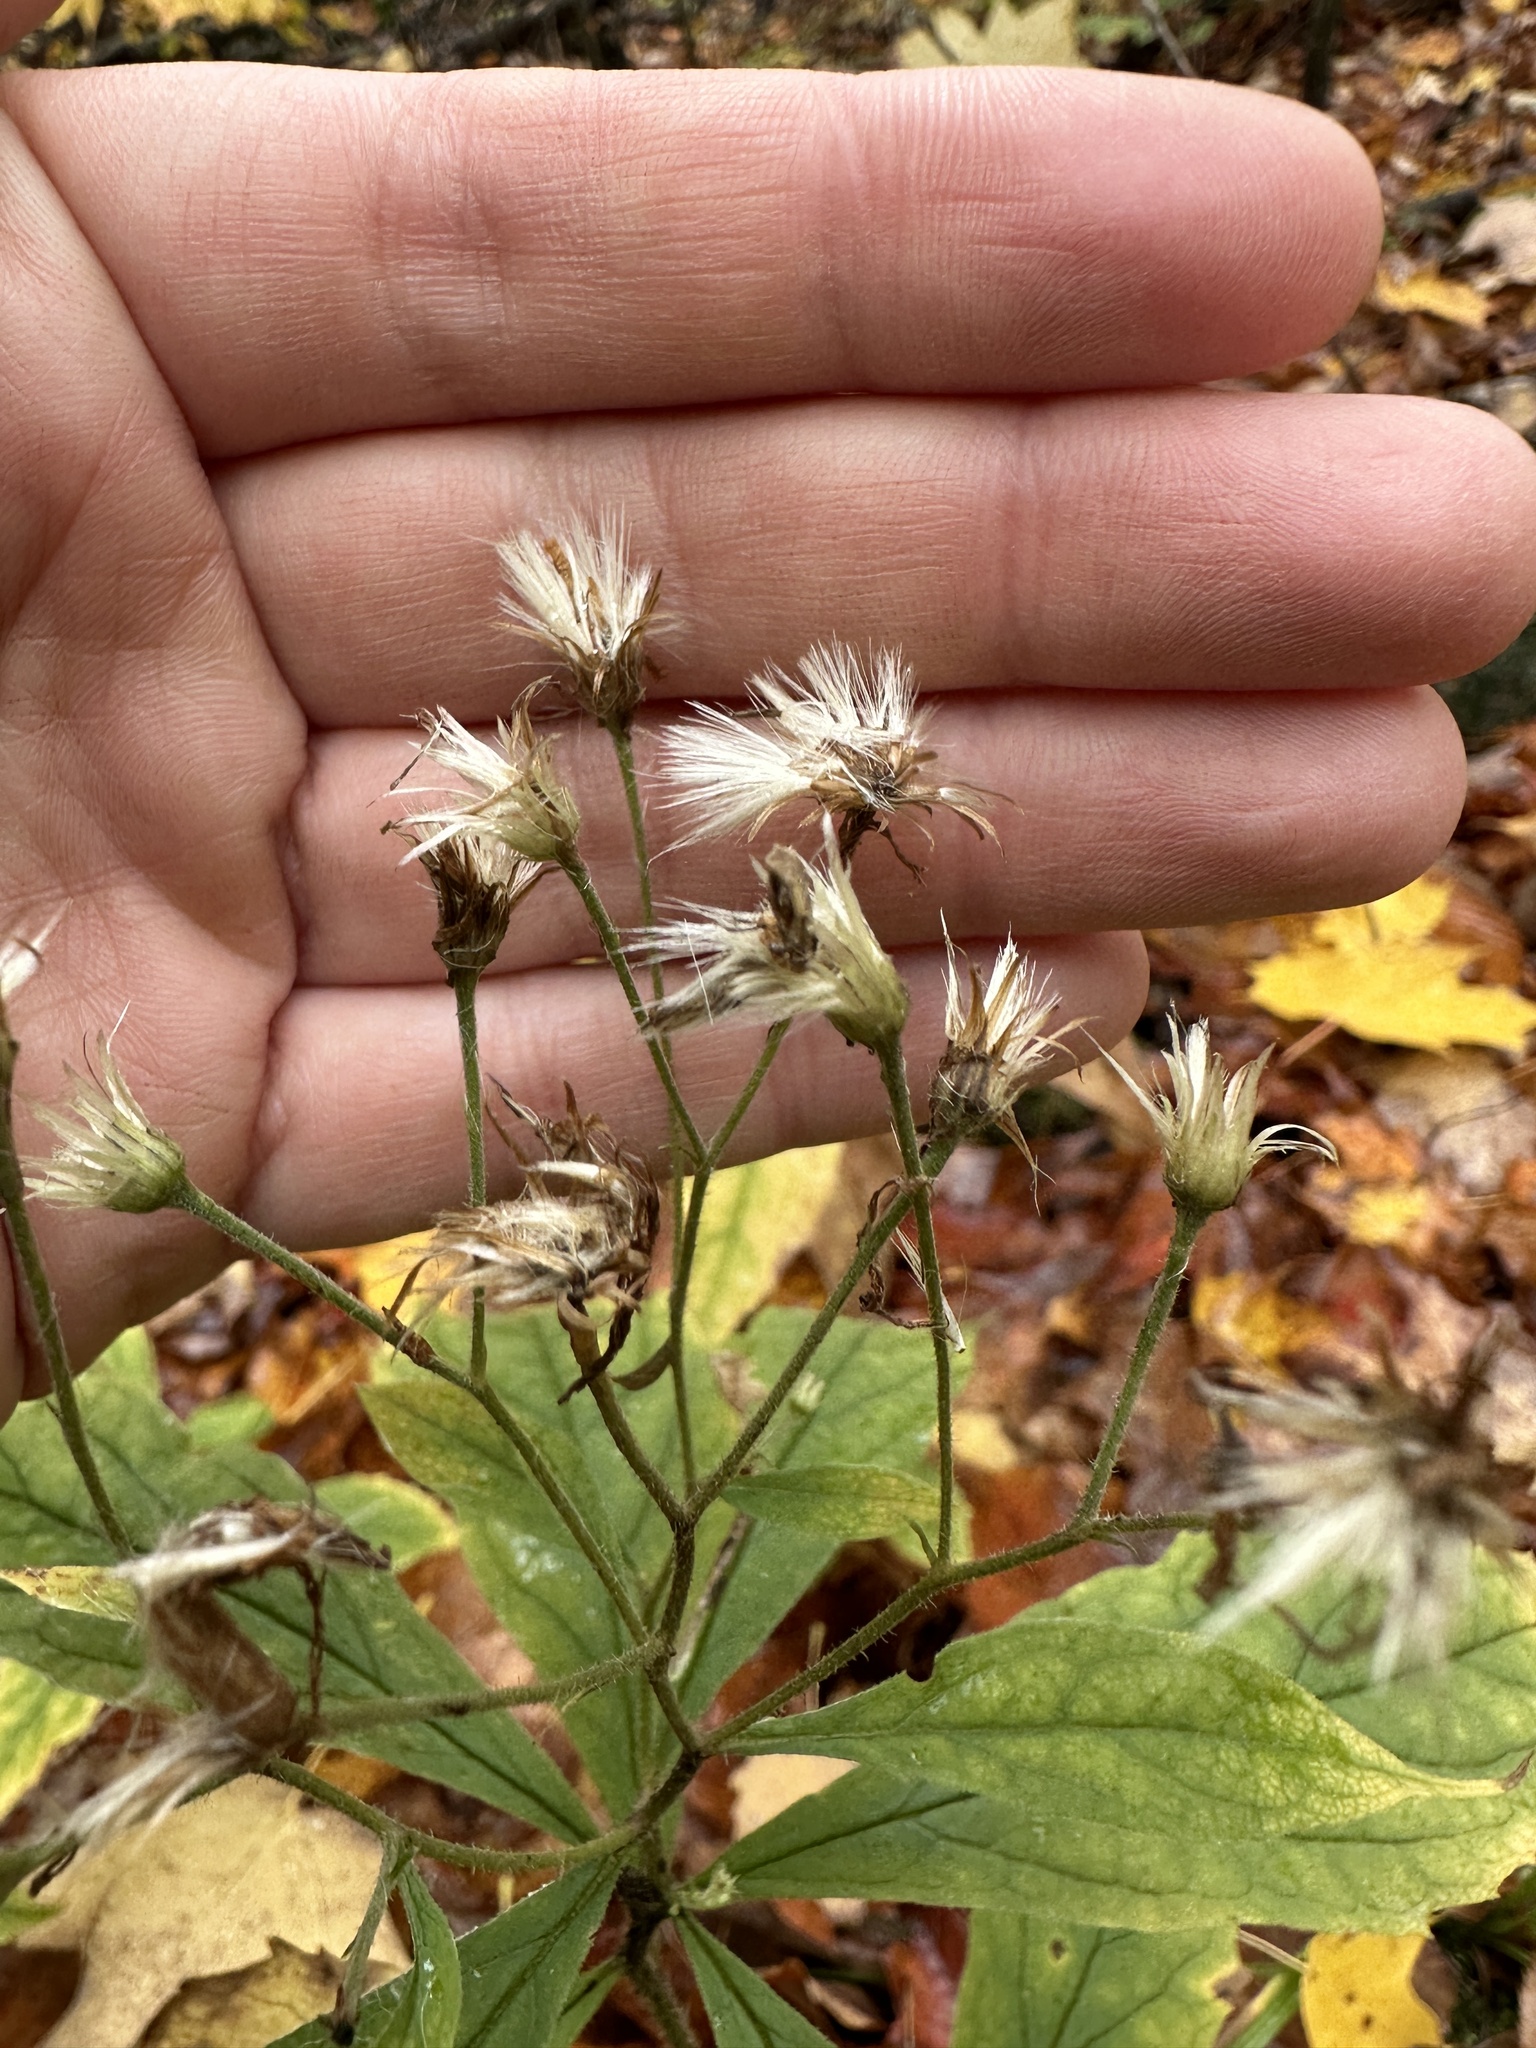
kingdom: Plantae
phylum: Tracheophyta
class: Magnoliopsida
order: Asterales
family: Asteraceae
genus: Oclemena
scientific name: Oclemena acuminata
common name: Mountain aster
